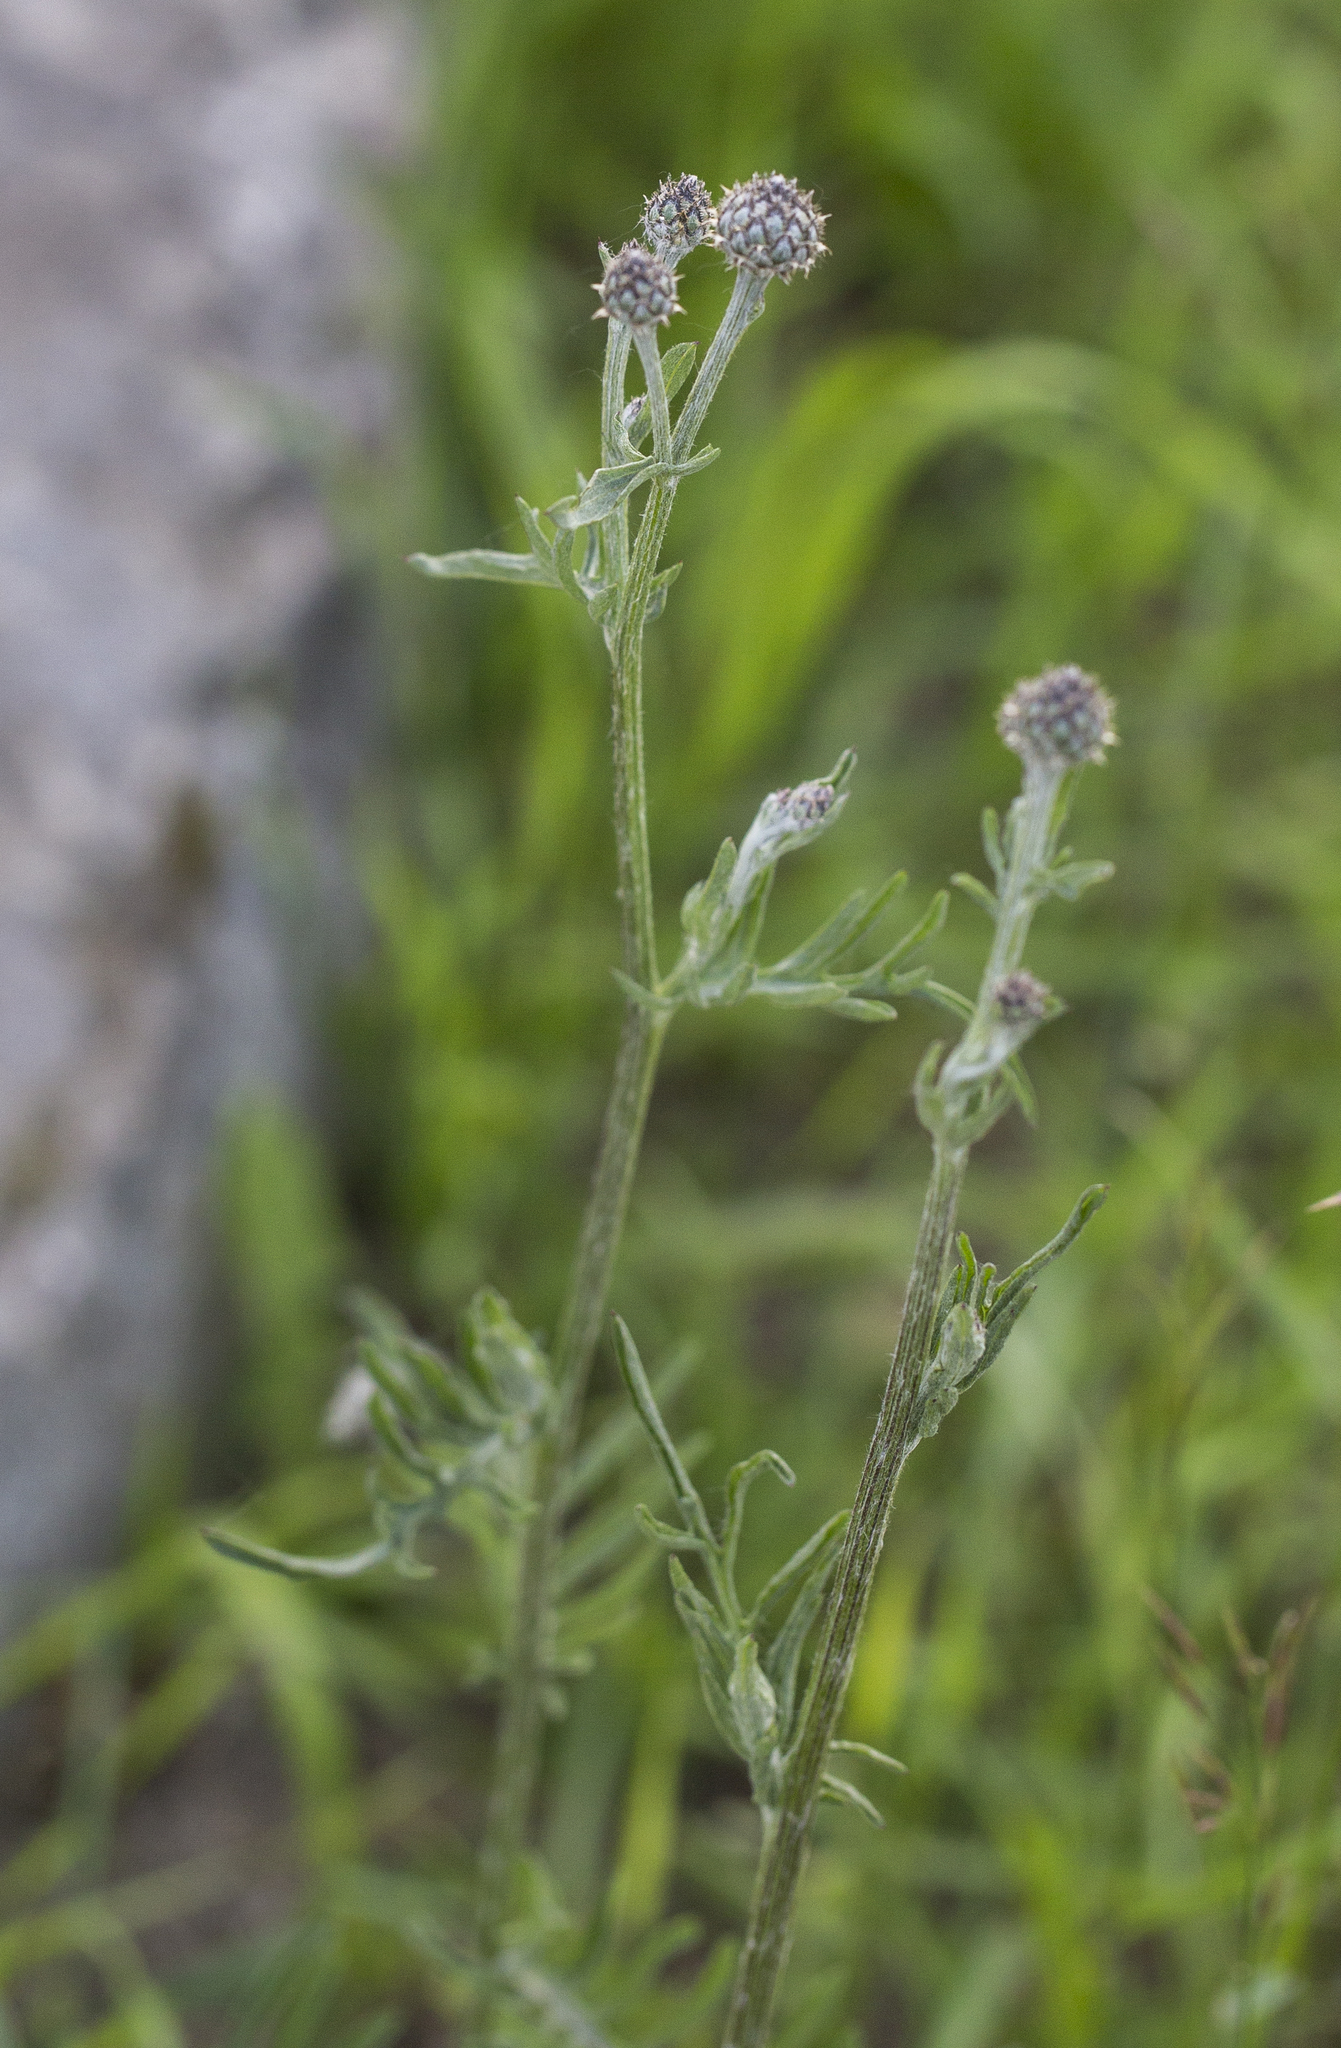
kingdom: Plantae
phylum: Tracheophyta
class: Magnoliopsida
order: Asterales
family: Asteraceae
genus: Centaurea
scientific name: Centaurea scabiosa
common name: Greater knapweed
